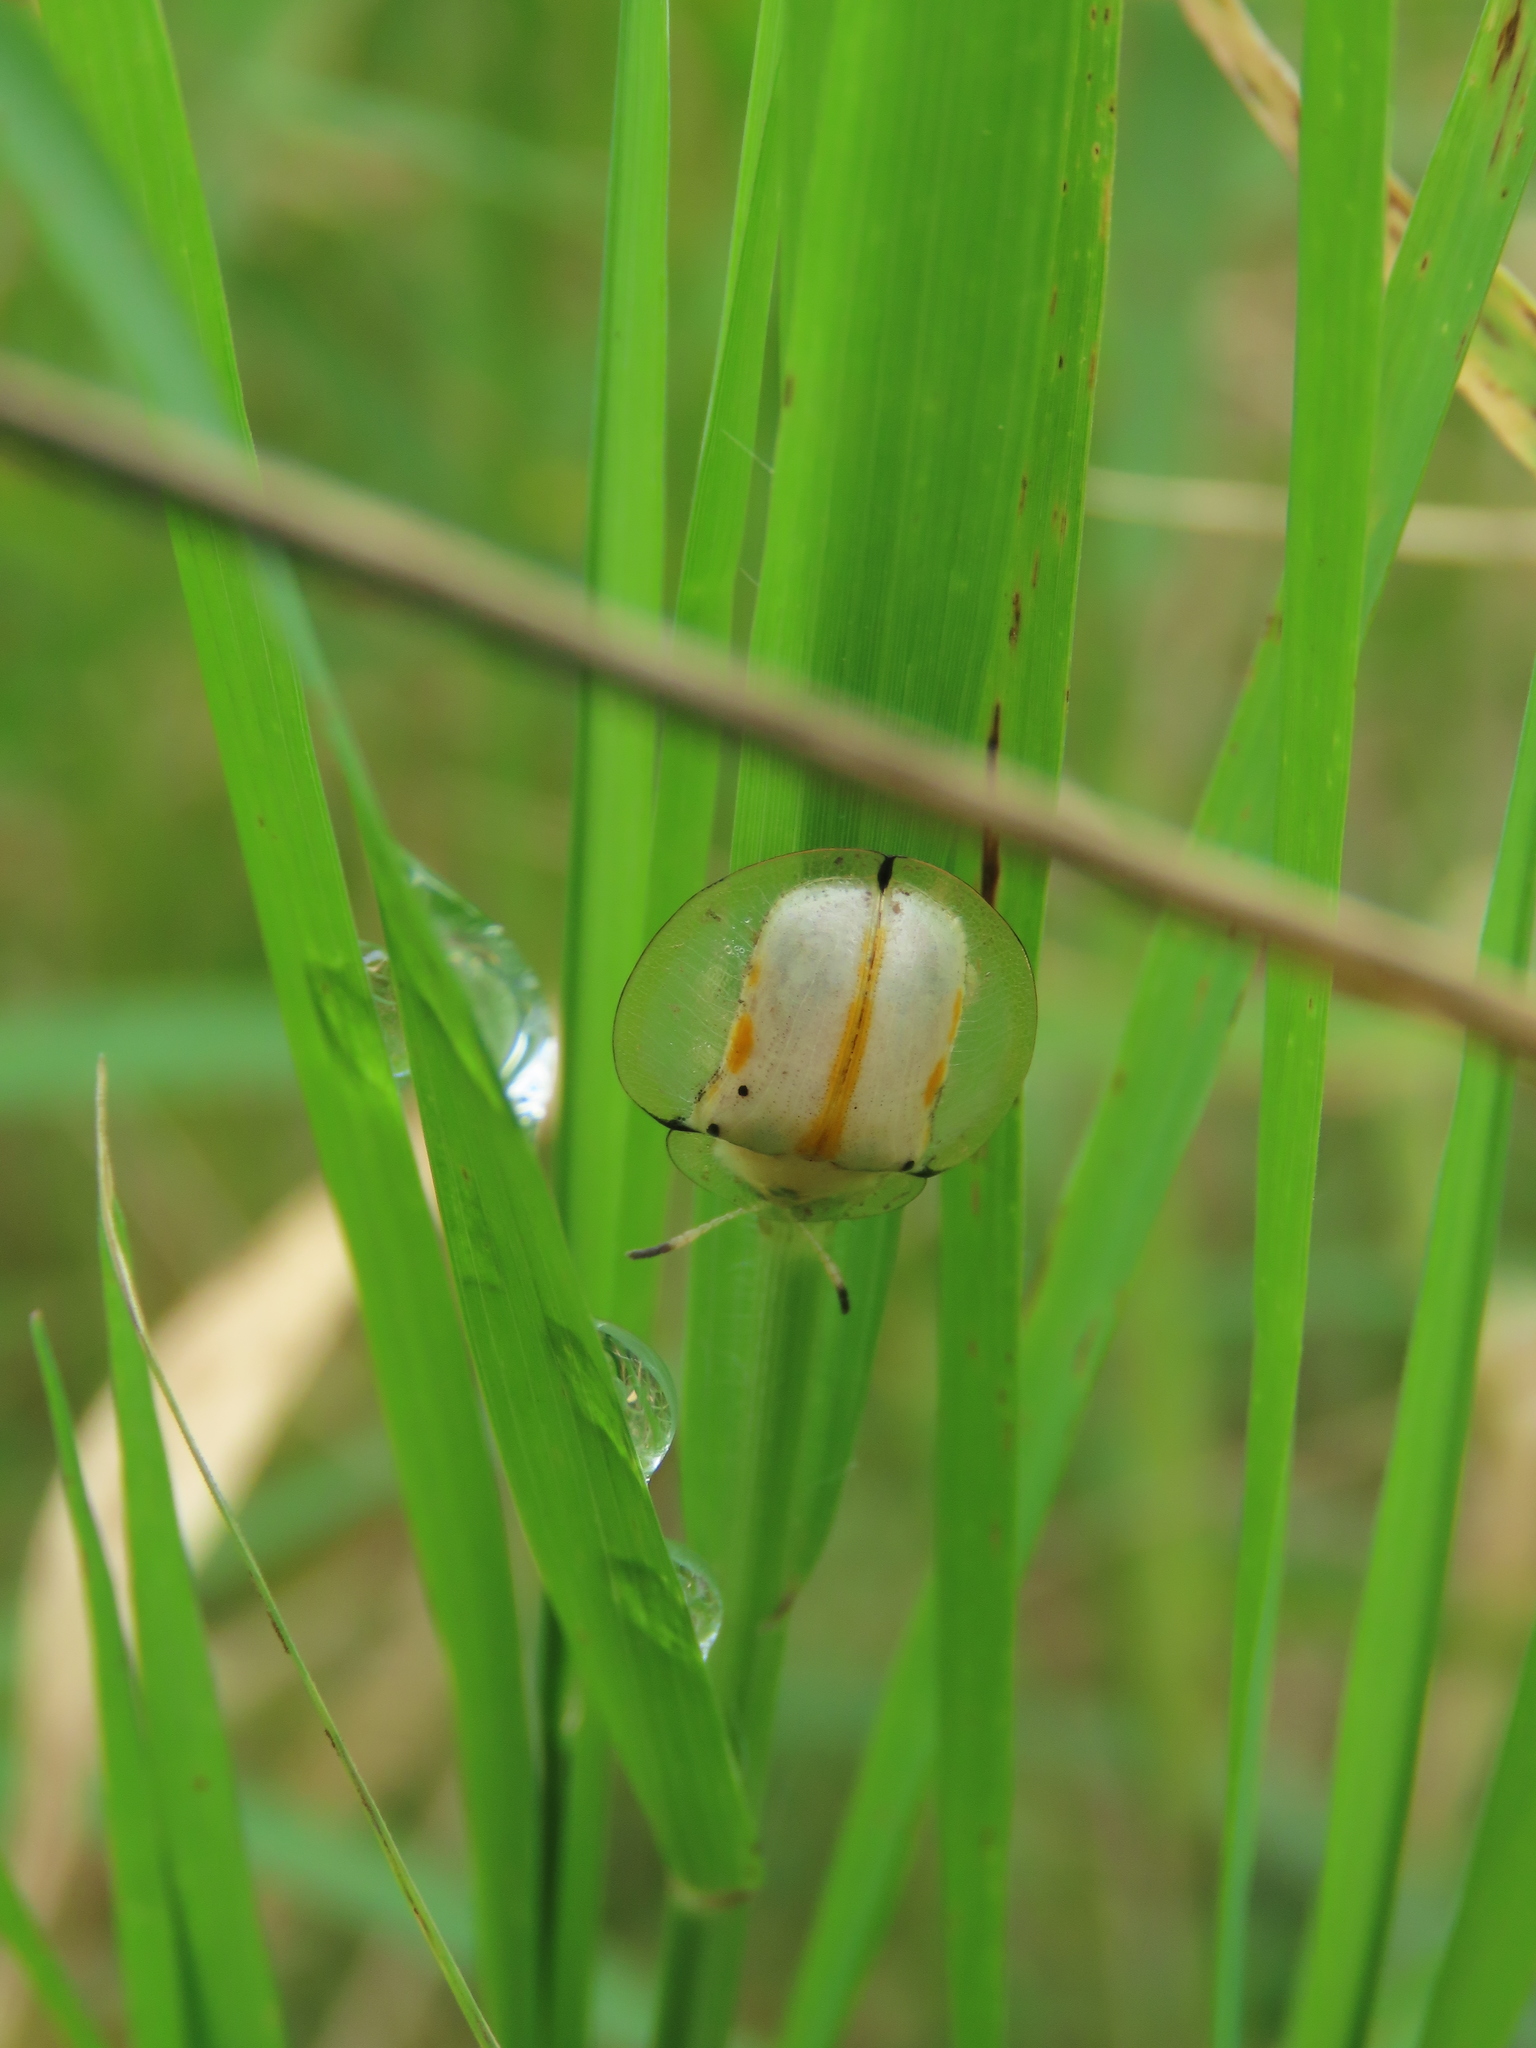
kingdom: Animalia
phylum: Arthropoda
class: Insecta
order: Coleoptera
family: Chrysomelidae
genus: Aspidimorpha
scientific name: Aspidimorpha miliaris
